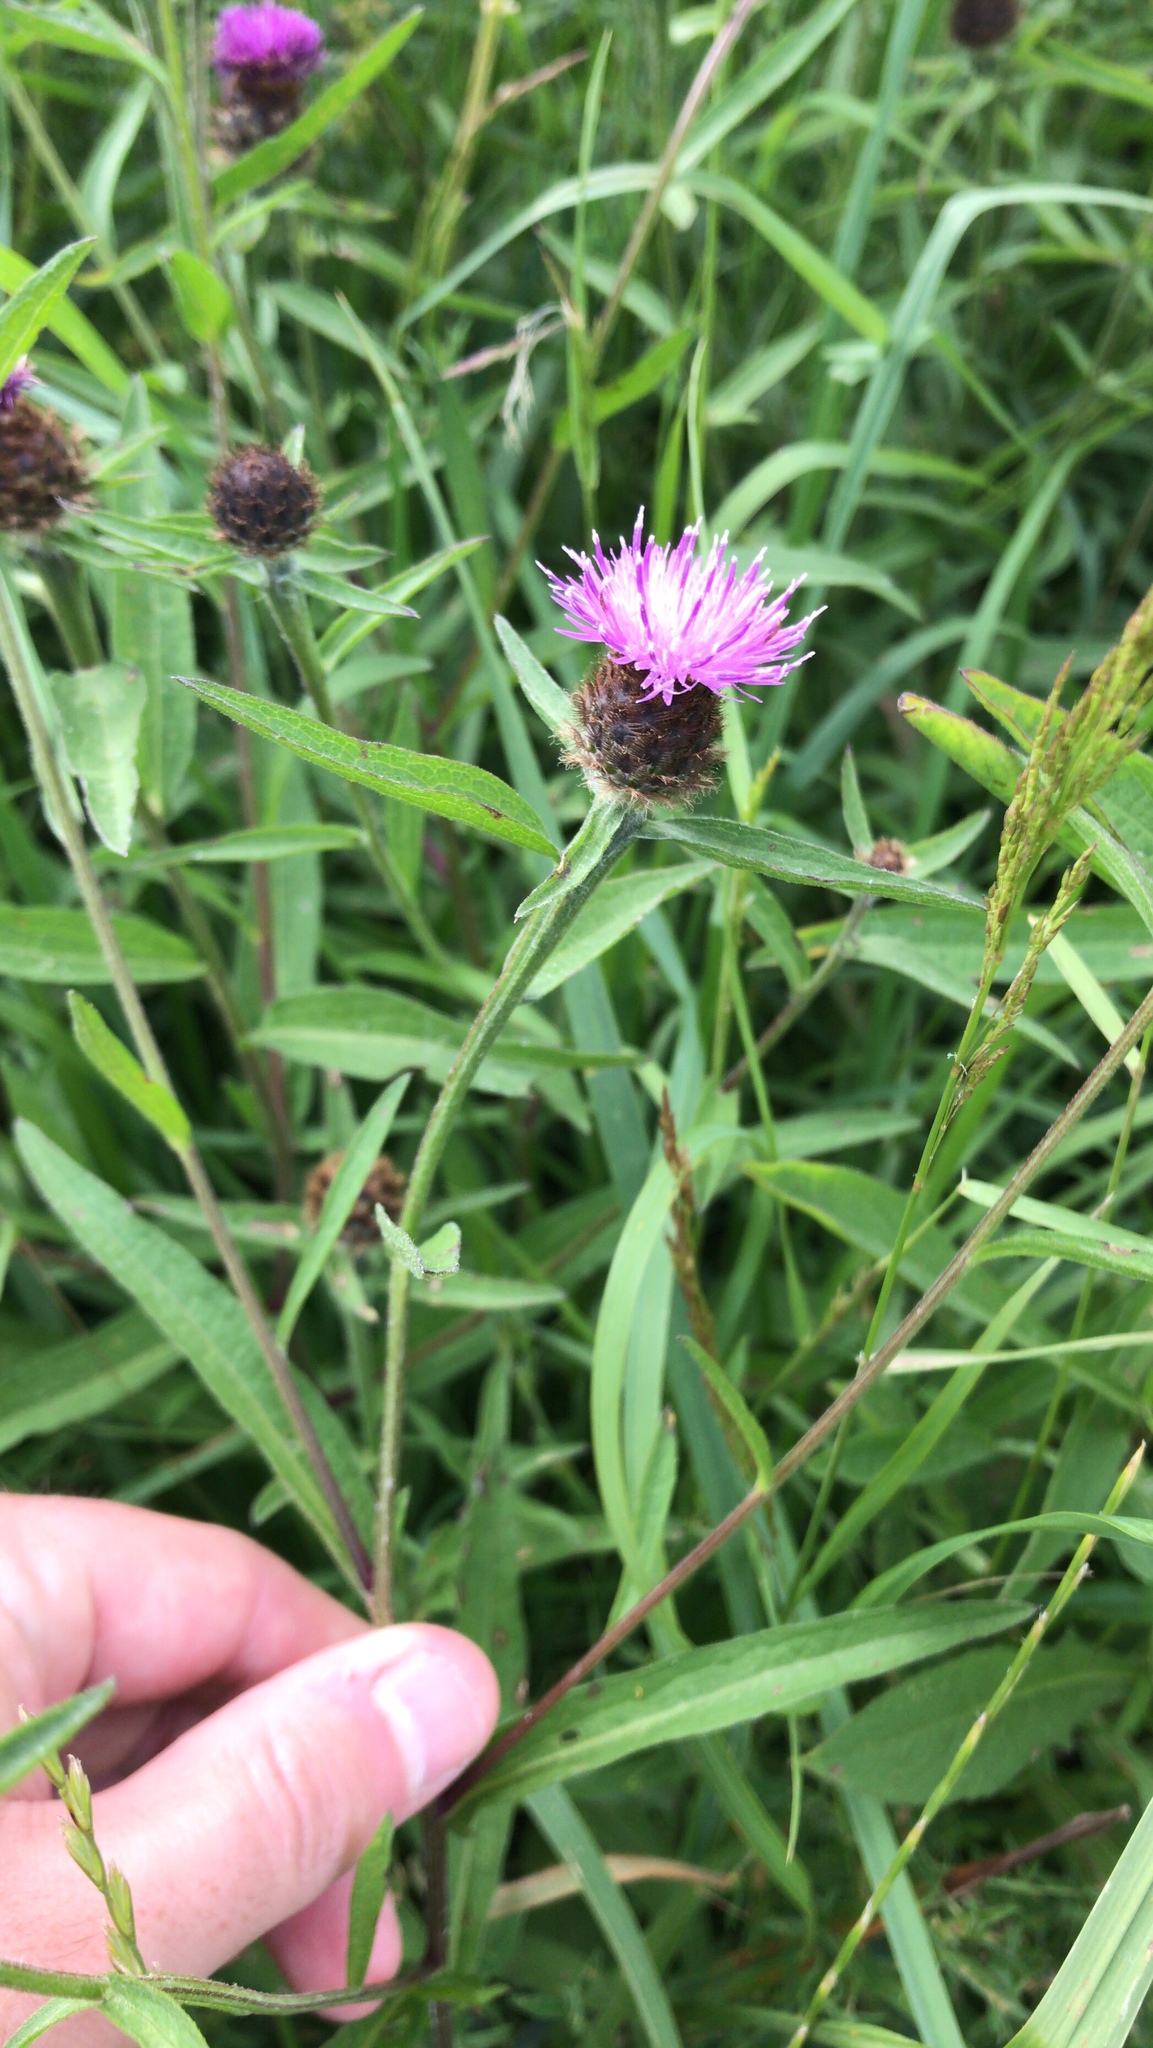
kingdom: Plantae
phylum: Tracheophyta
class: Magnoliopsida
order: Asterales
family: Asteraceae
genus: Centaurea
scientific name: Centaurea nigra
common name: Lesser knapweed
